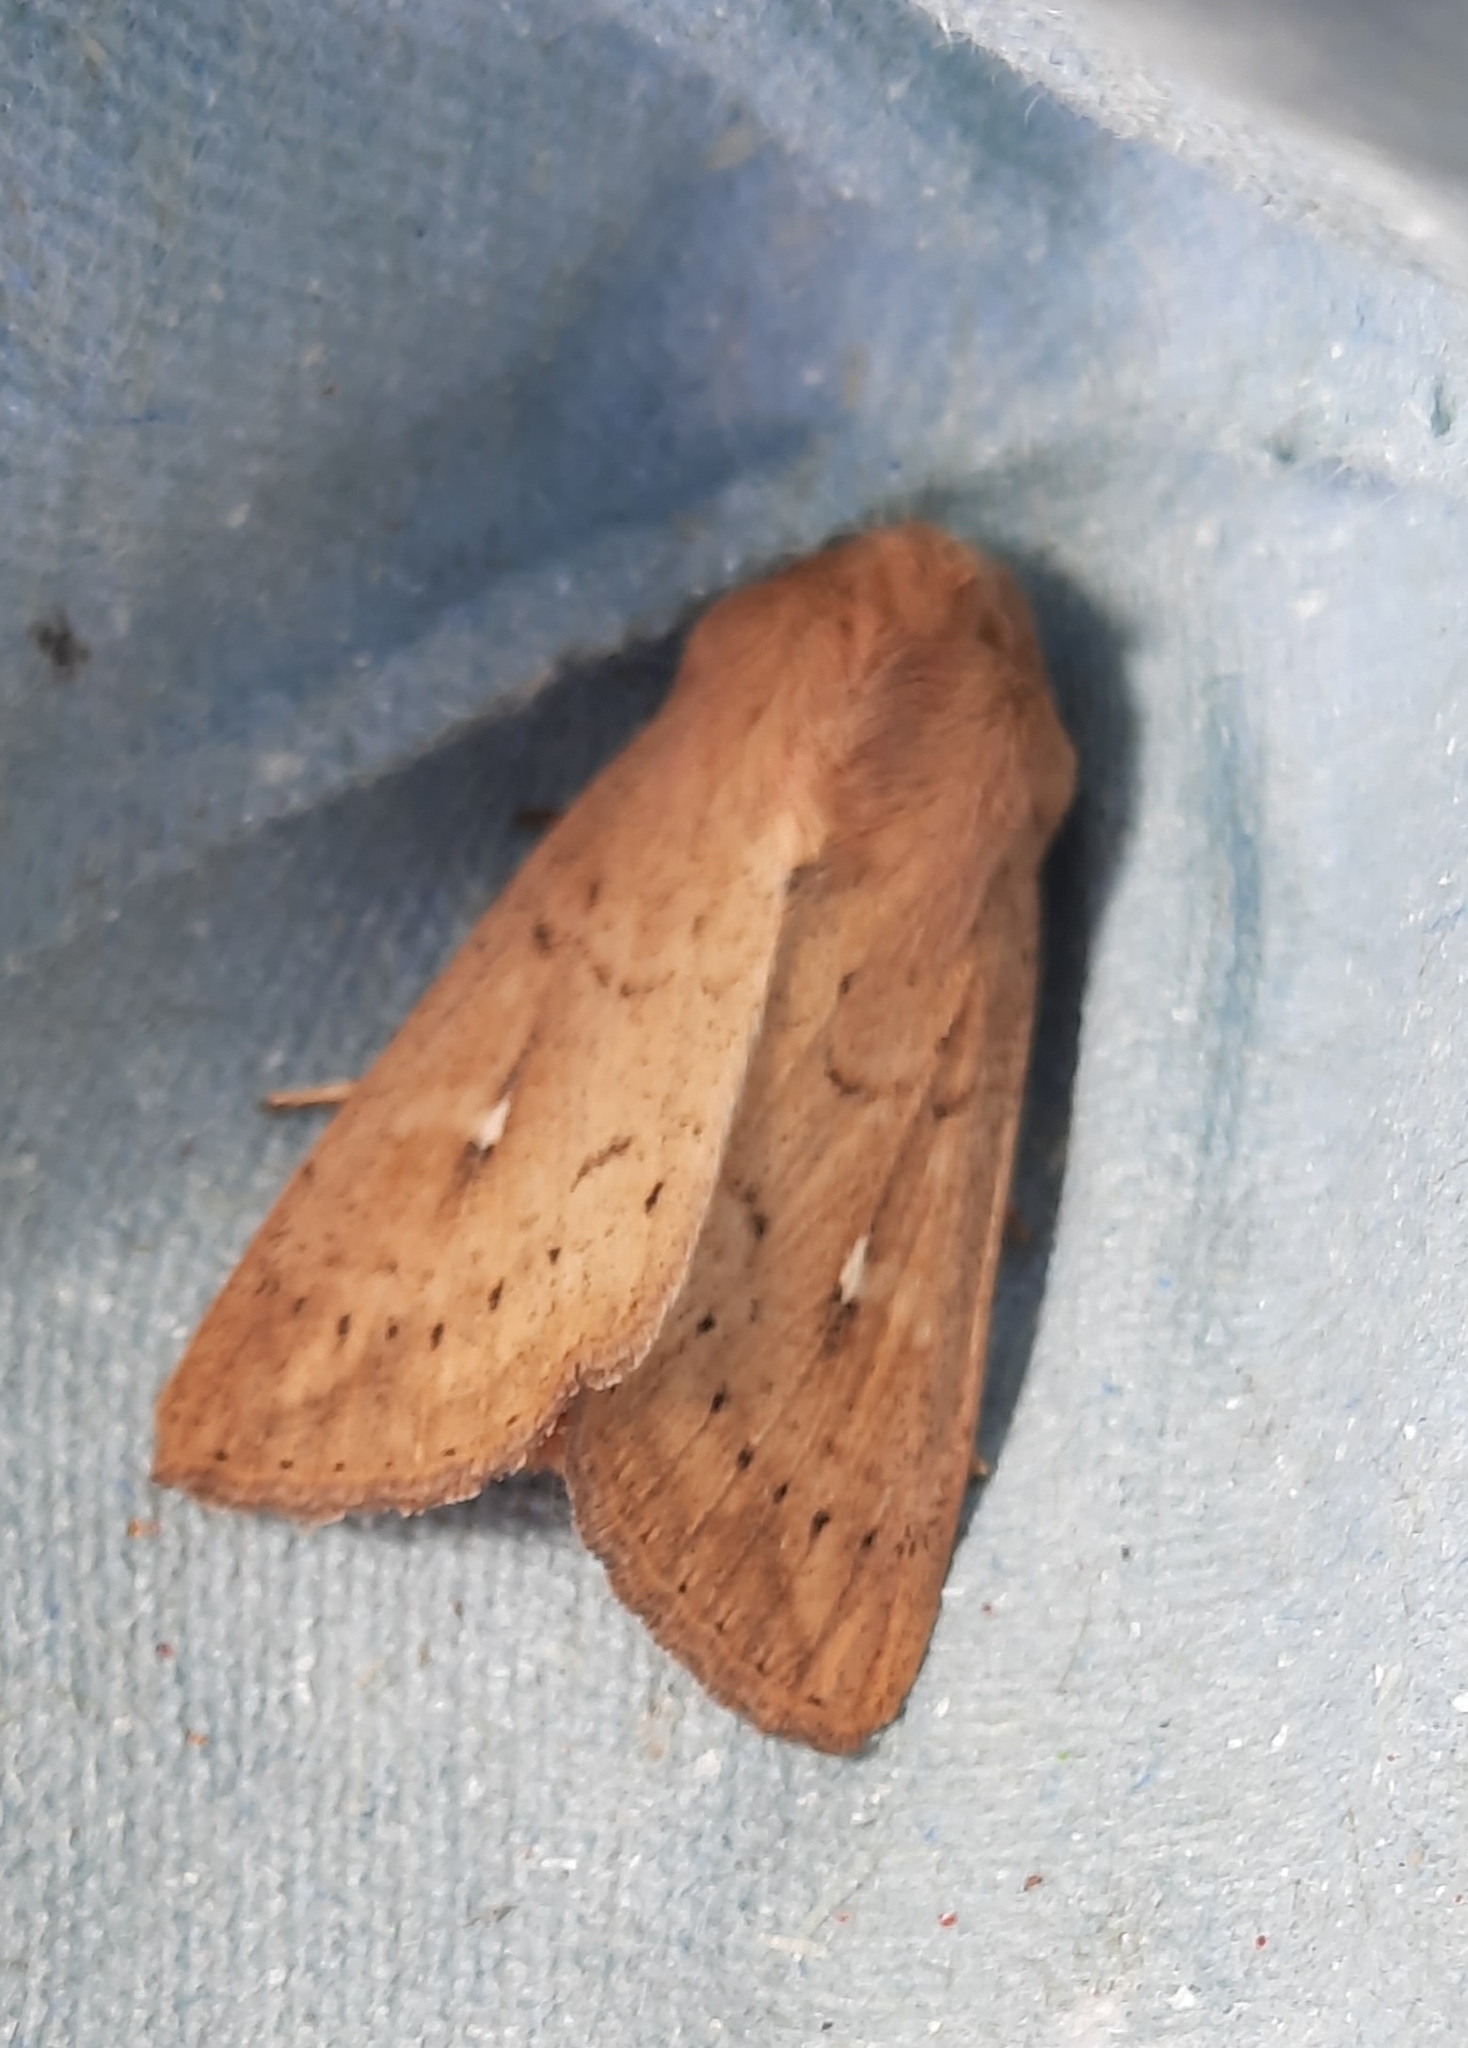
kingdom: Animalia
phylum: Arthropoda
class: Insecta
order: Lepidoptera
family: Noctuidae
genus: Mythimna
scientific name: Mythimna ferrago
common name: Clay
